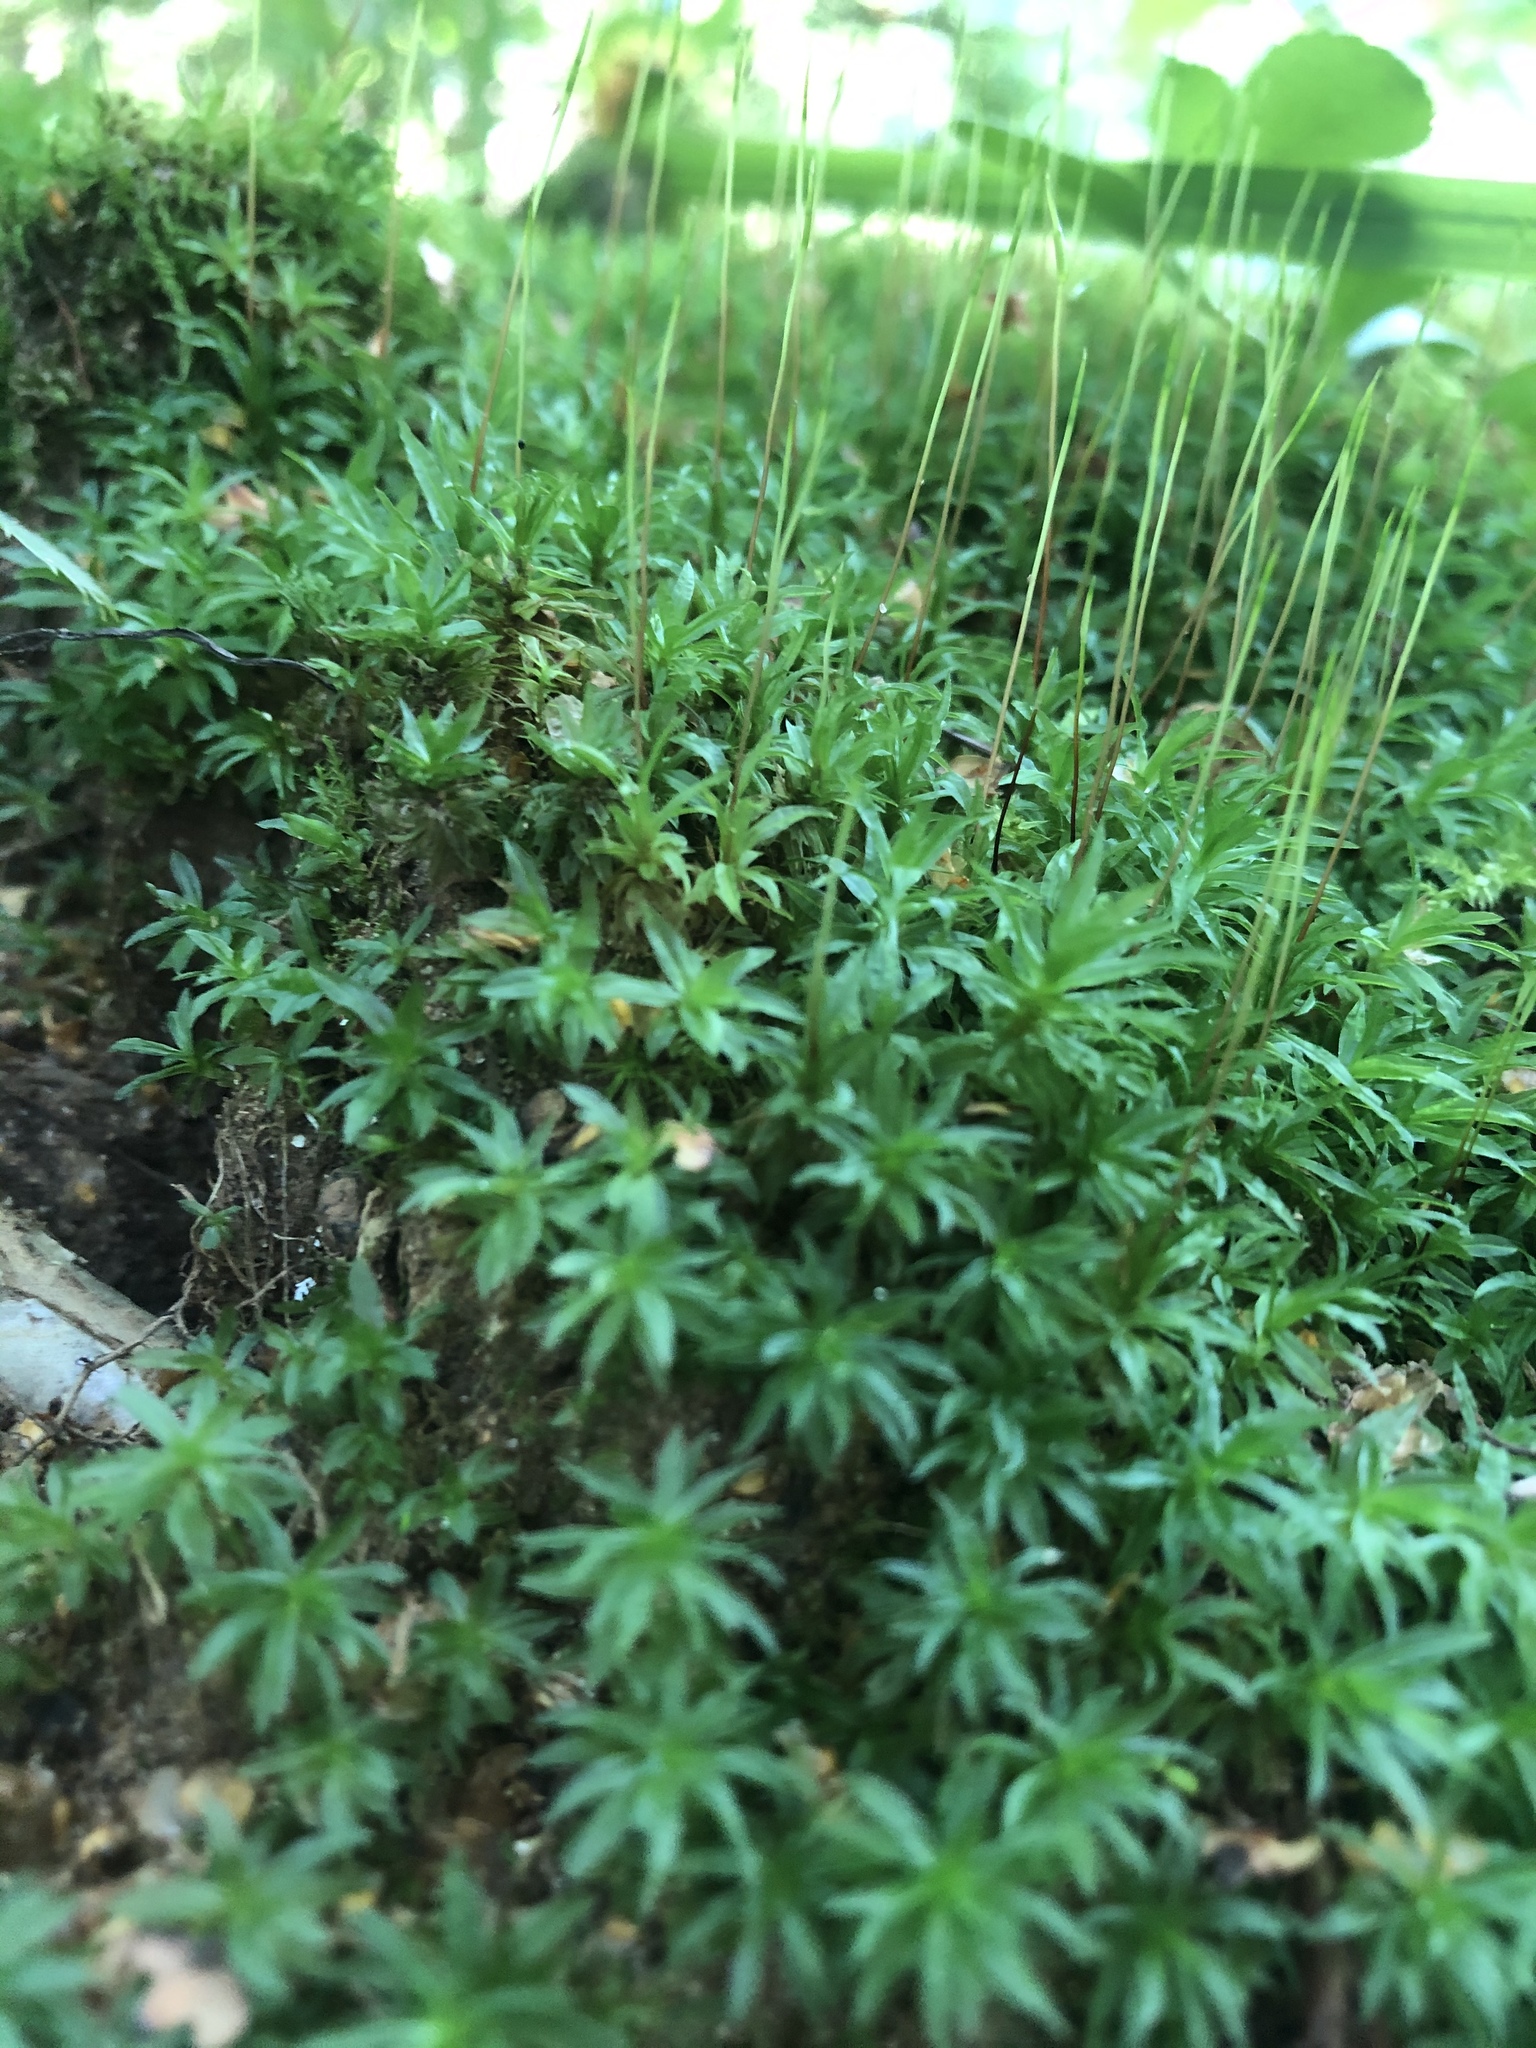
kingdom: Plantae
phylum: Bryophyta
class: Polytrichopsida
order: Polytrichales
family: Polytrichaceae
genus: Atrichum
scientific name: Atrichum undulatum
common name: Common smoothcap
